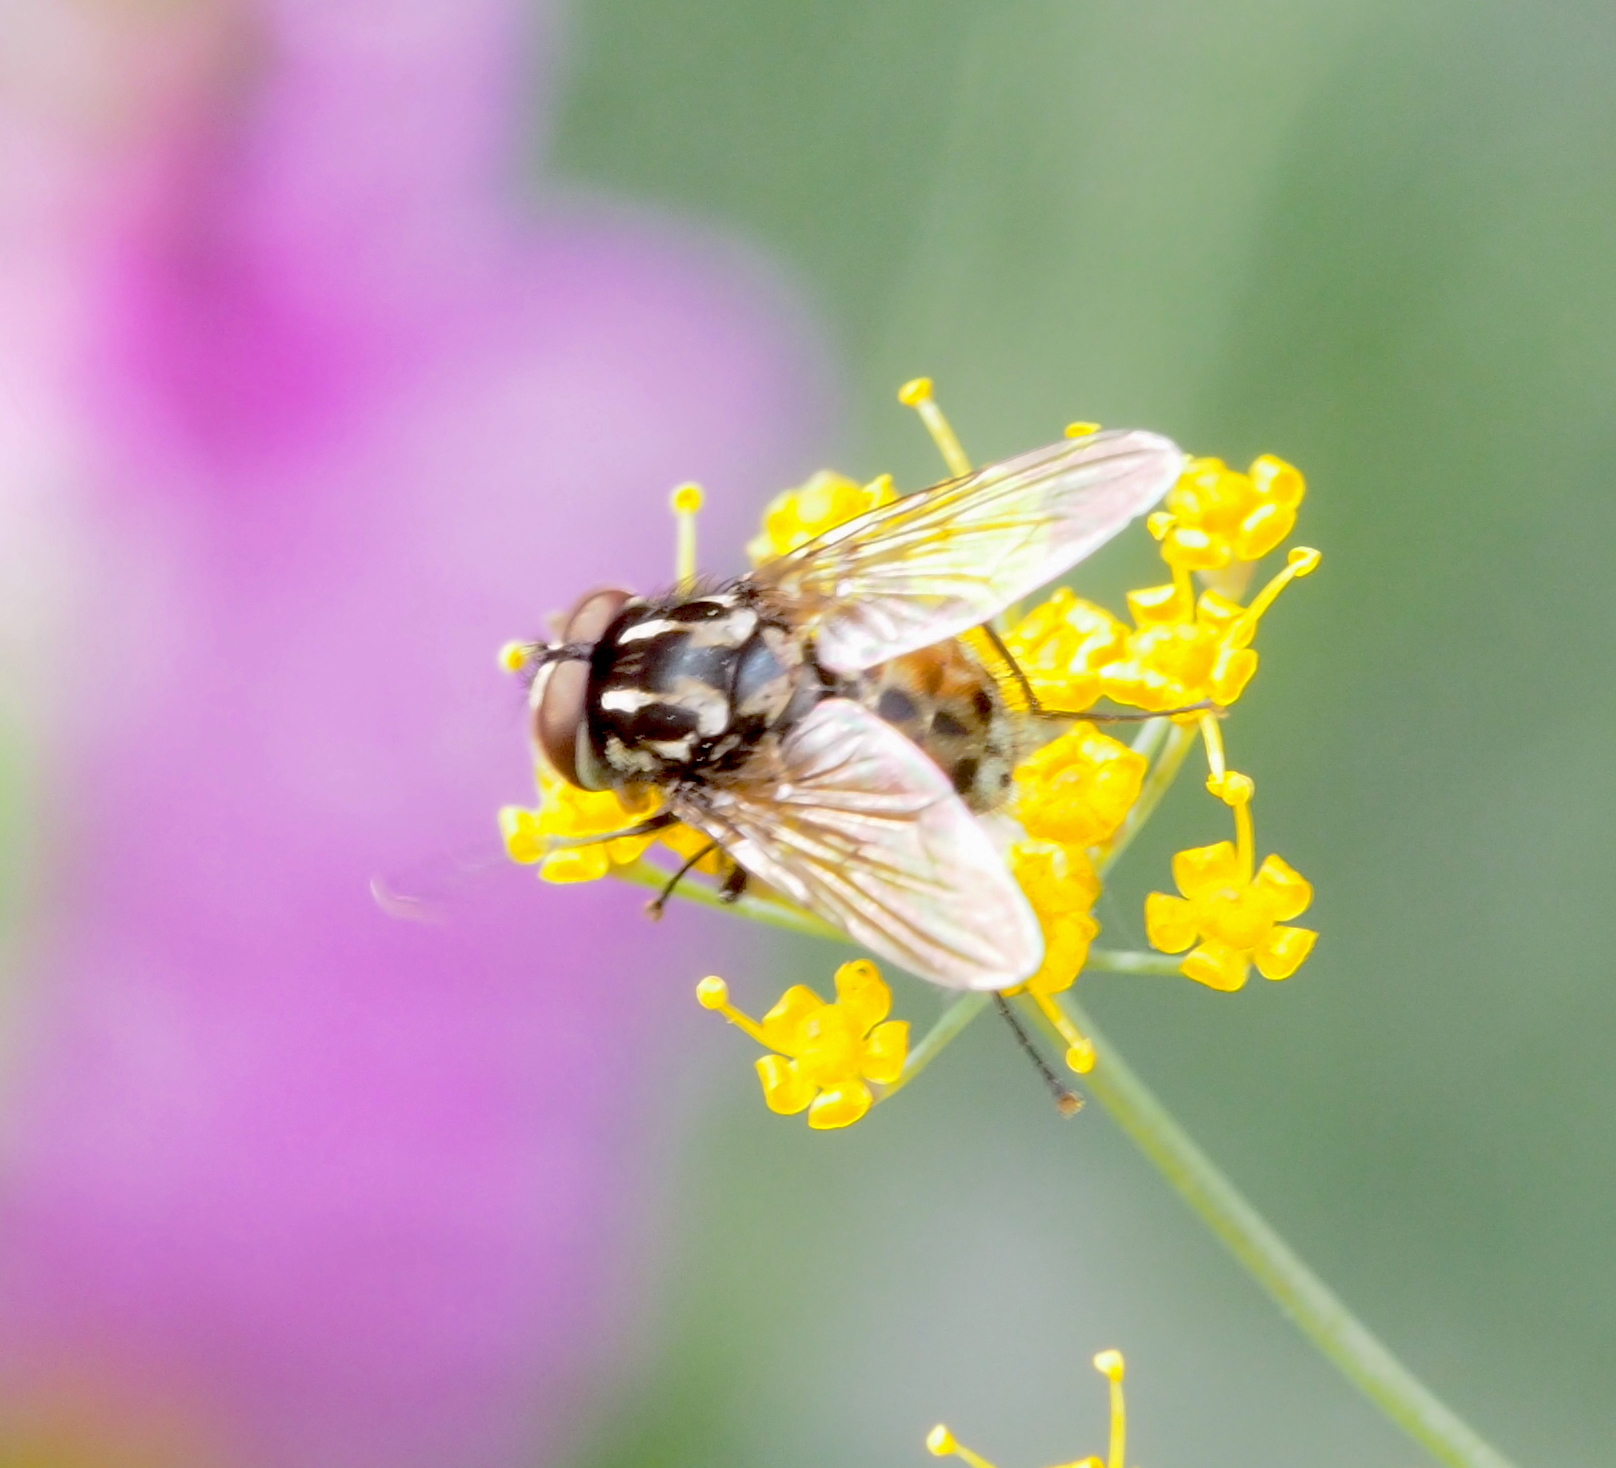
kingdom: Animalia
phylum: Arthropoda
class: Insecta
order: Diptera
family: Muscidae
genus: Graphomya
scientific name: Graphomya maculata
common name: Muscid fly
